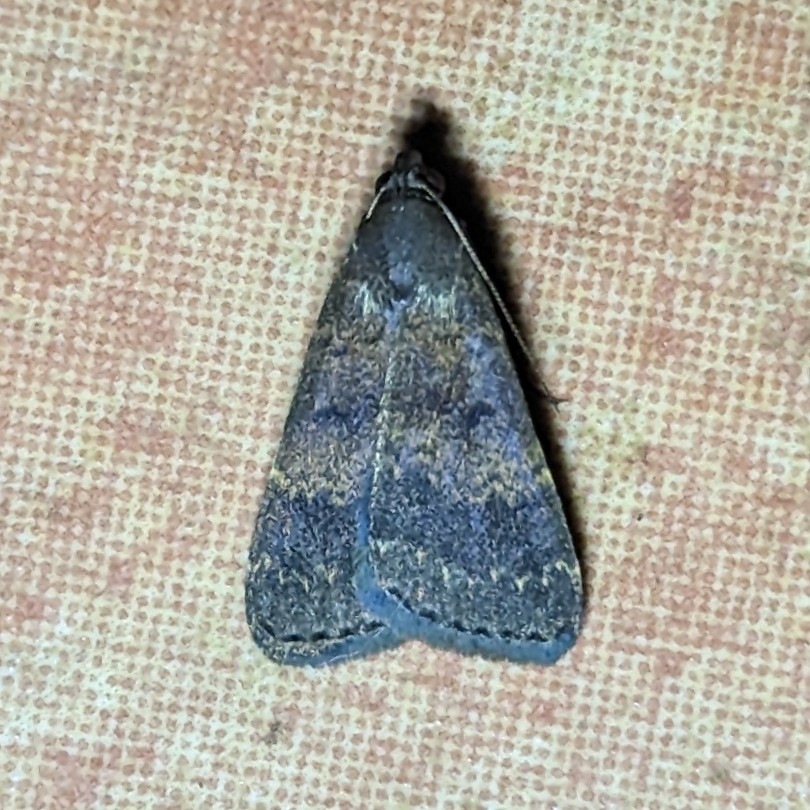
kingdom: Animalia
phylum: Arthropoda
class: Insecta
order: Lepidoptera
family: Erebidae
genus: Hydrillodes
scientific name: Hydrillodes thomensis
